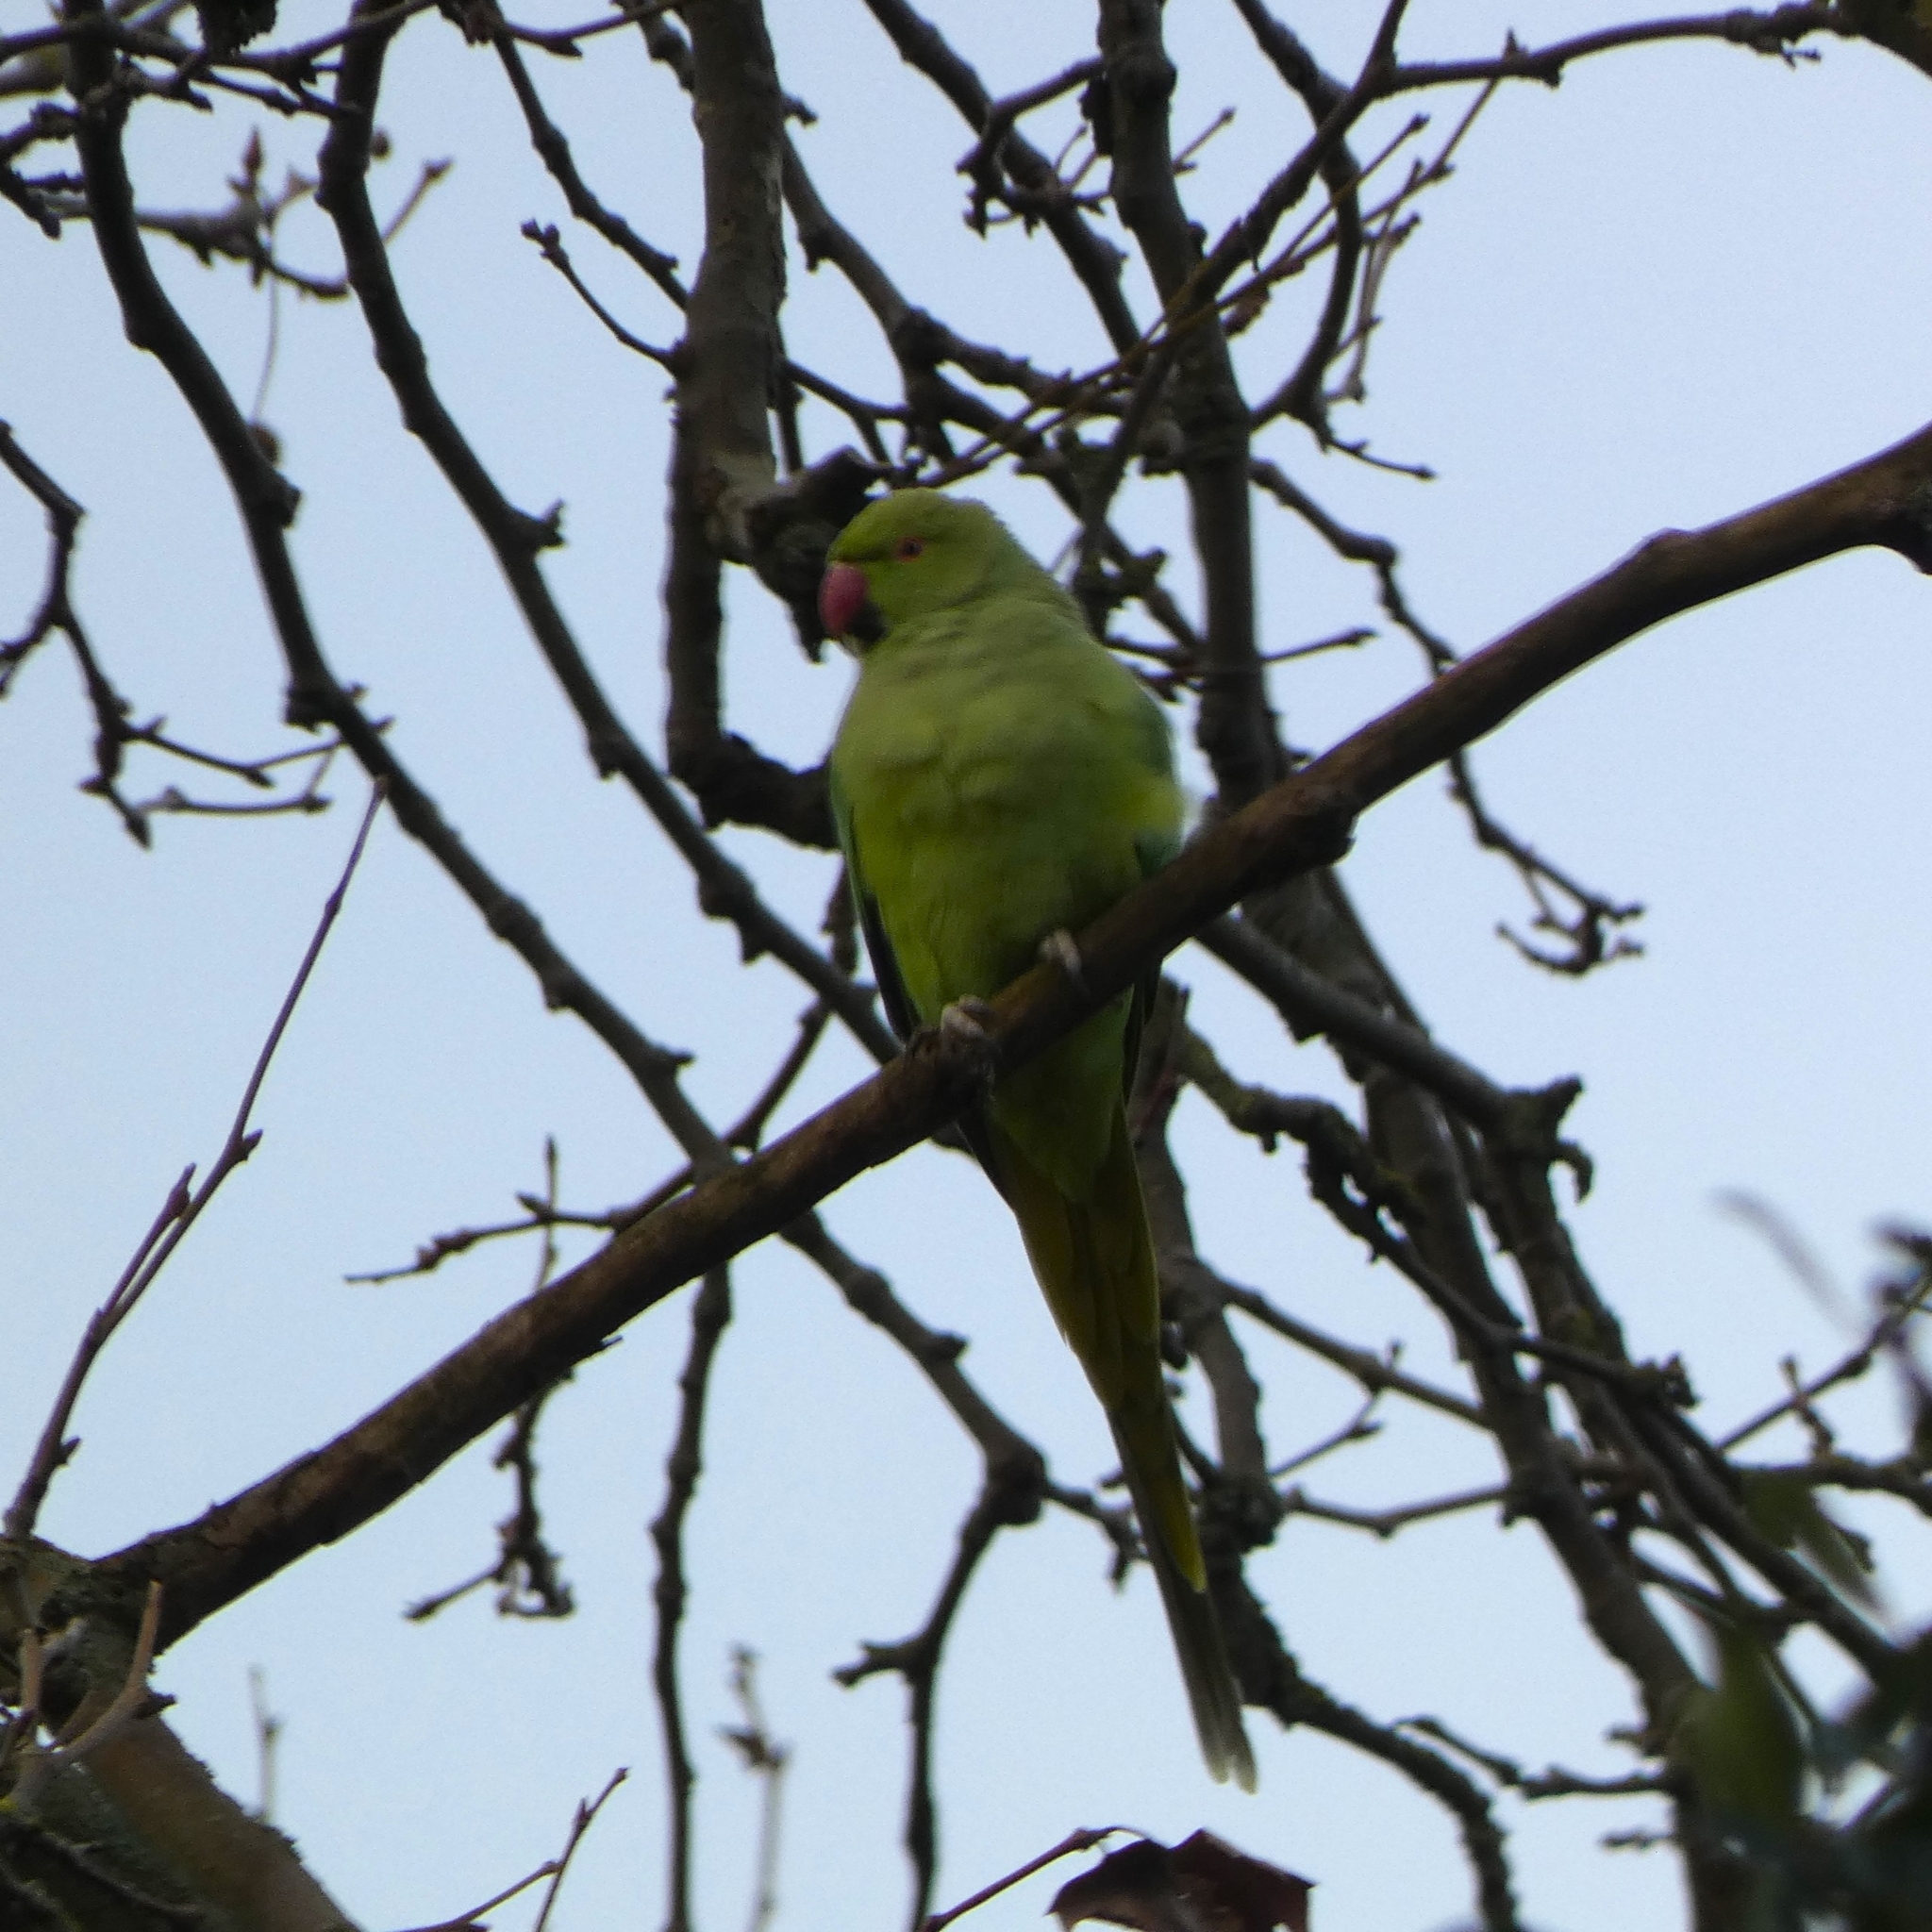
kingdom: Animalia
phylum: Chordata
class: Aves
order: Psittaciformes
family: Psittacidae
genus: Psittacula
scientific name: Psittacula krameri
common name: Rose-ringed parakeet
